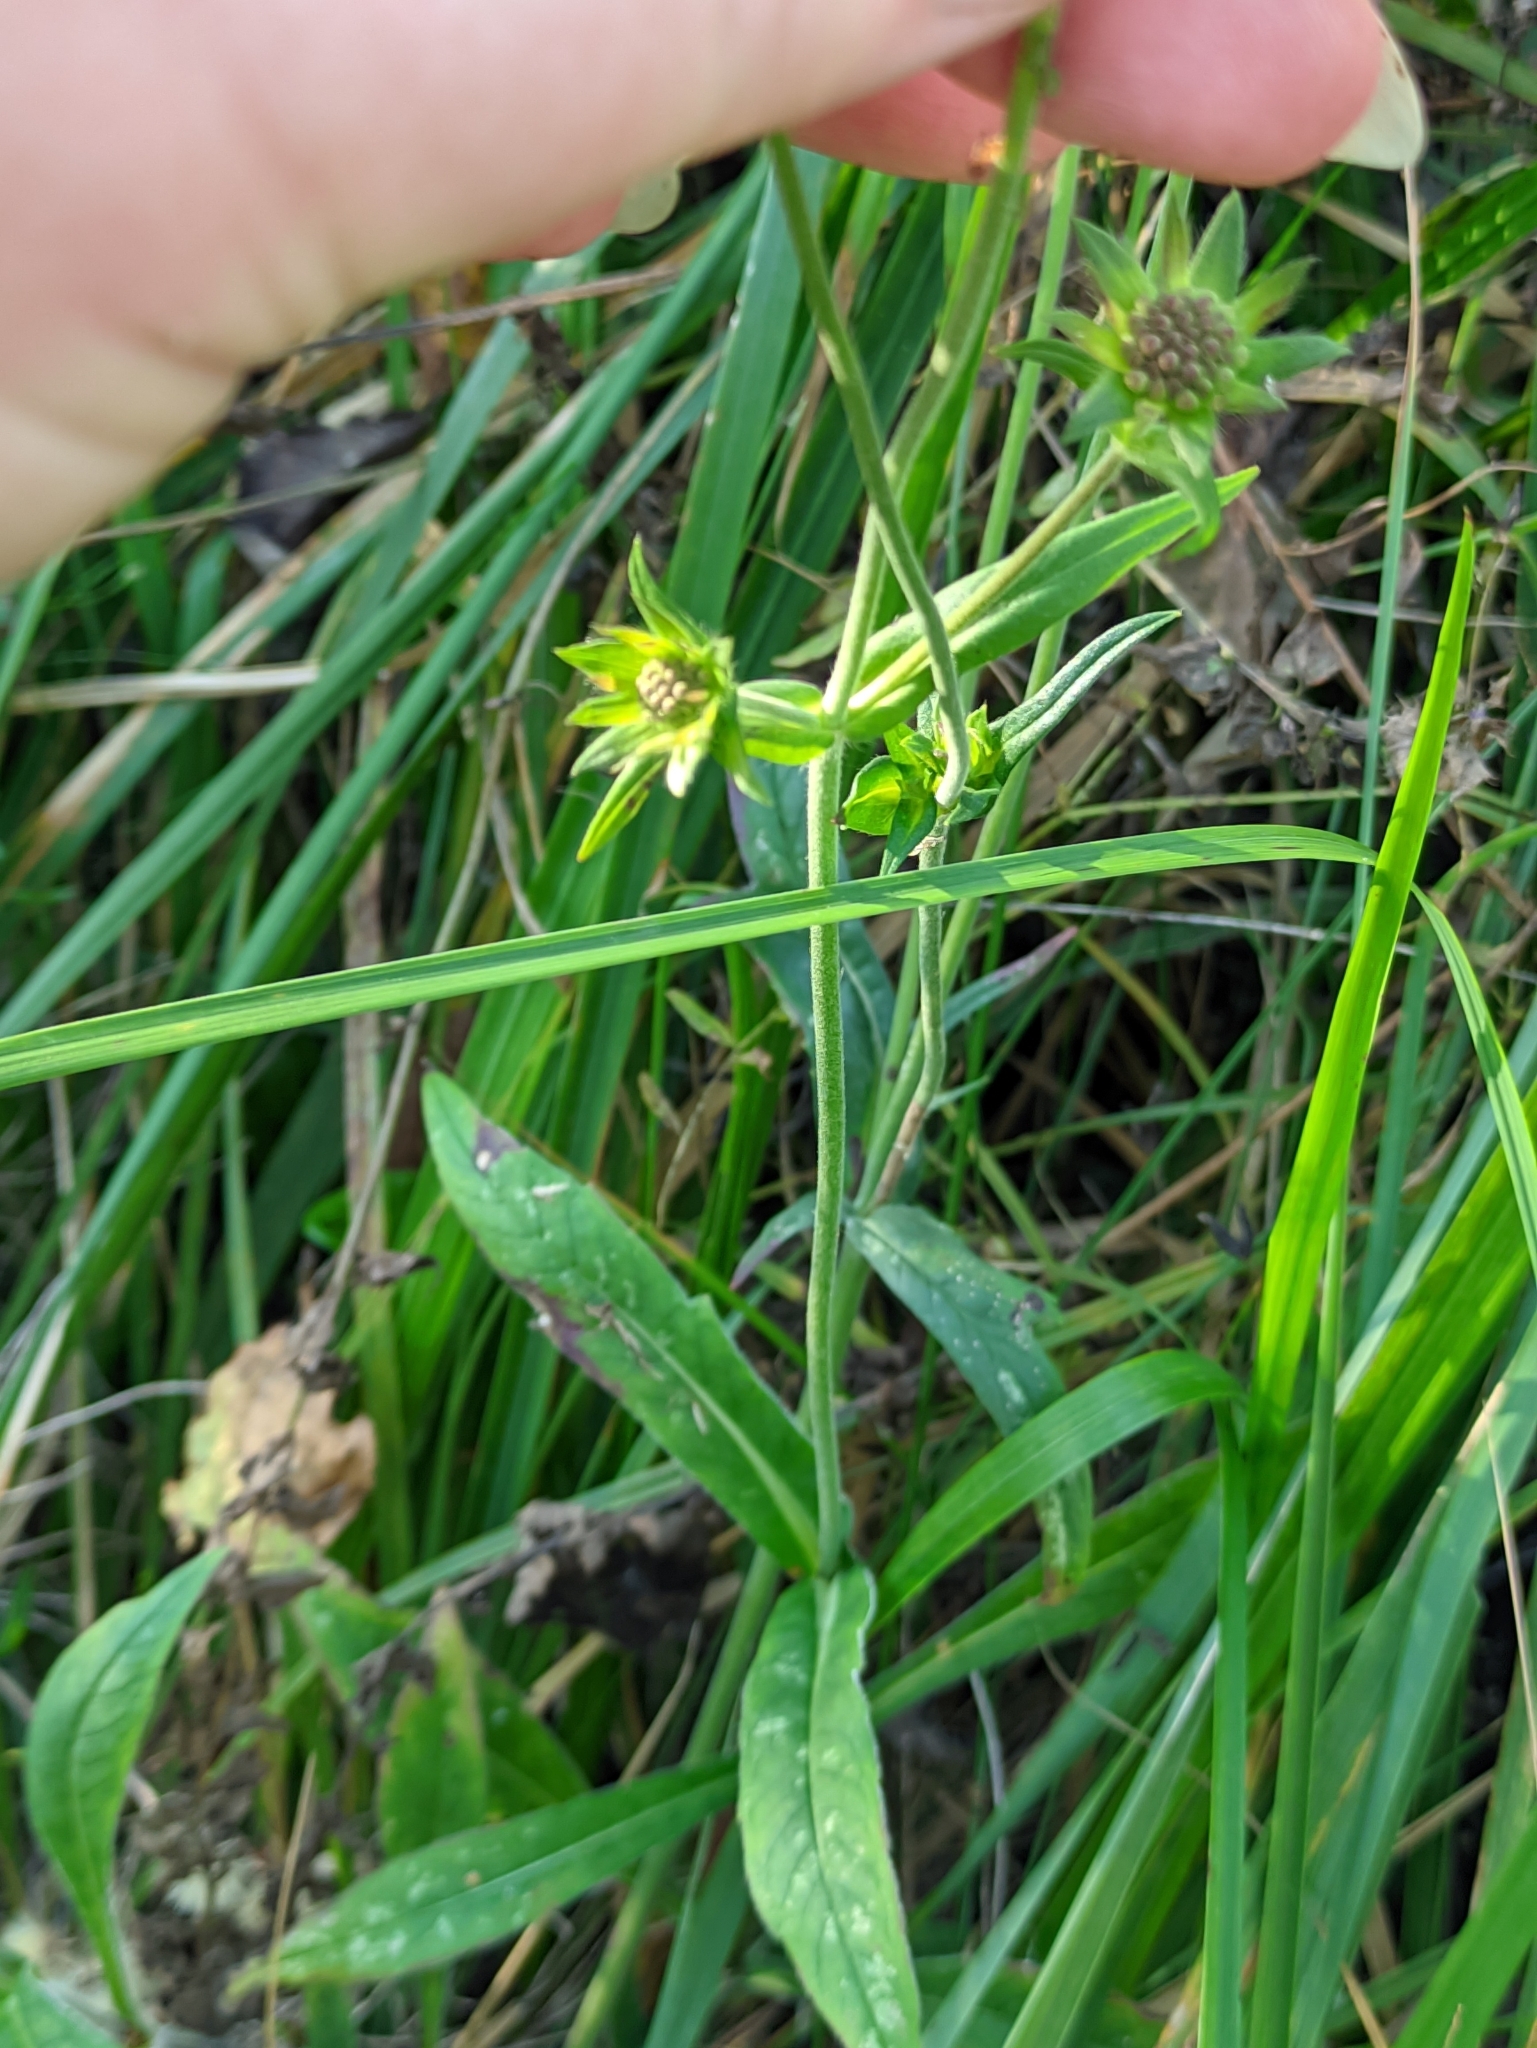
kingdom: Plantae
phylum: Tracheophyta
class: Magnoliopsida
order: Dipsacales
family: Caprifoliaceae
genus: Knautia
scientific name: Knautia arvensis
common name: Field scabiosa
